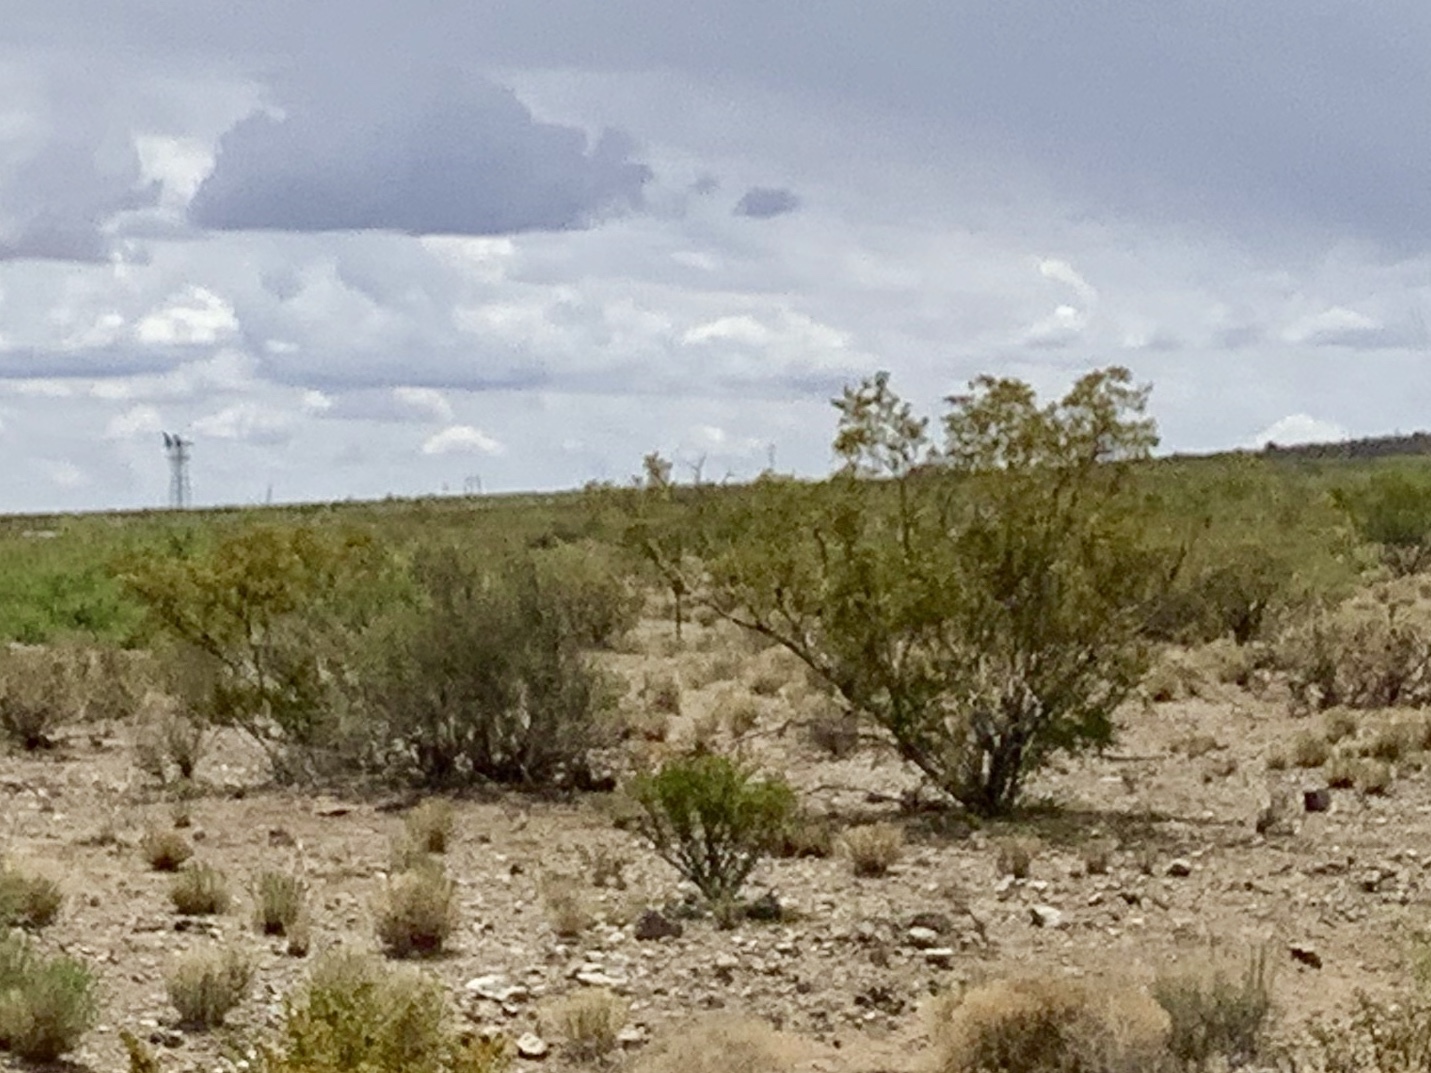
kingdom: Plantae
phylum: Tracheophyta
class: Magnoliopsida
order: Zygophyllales
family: Zygophyllaceae
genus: Larrea
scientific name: Larrea tridentata
